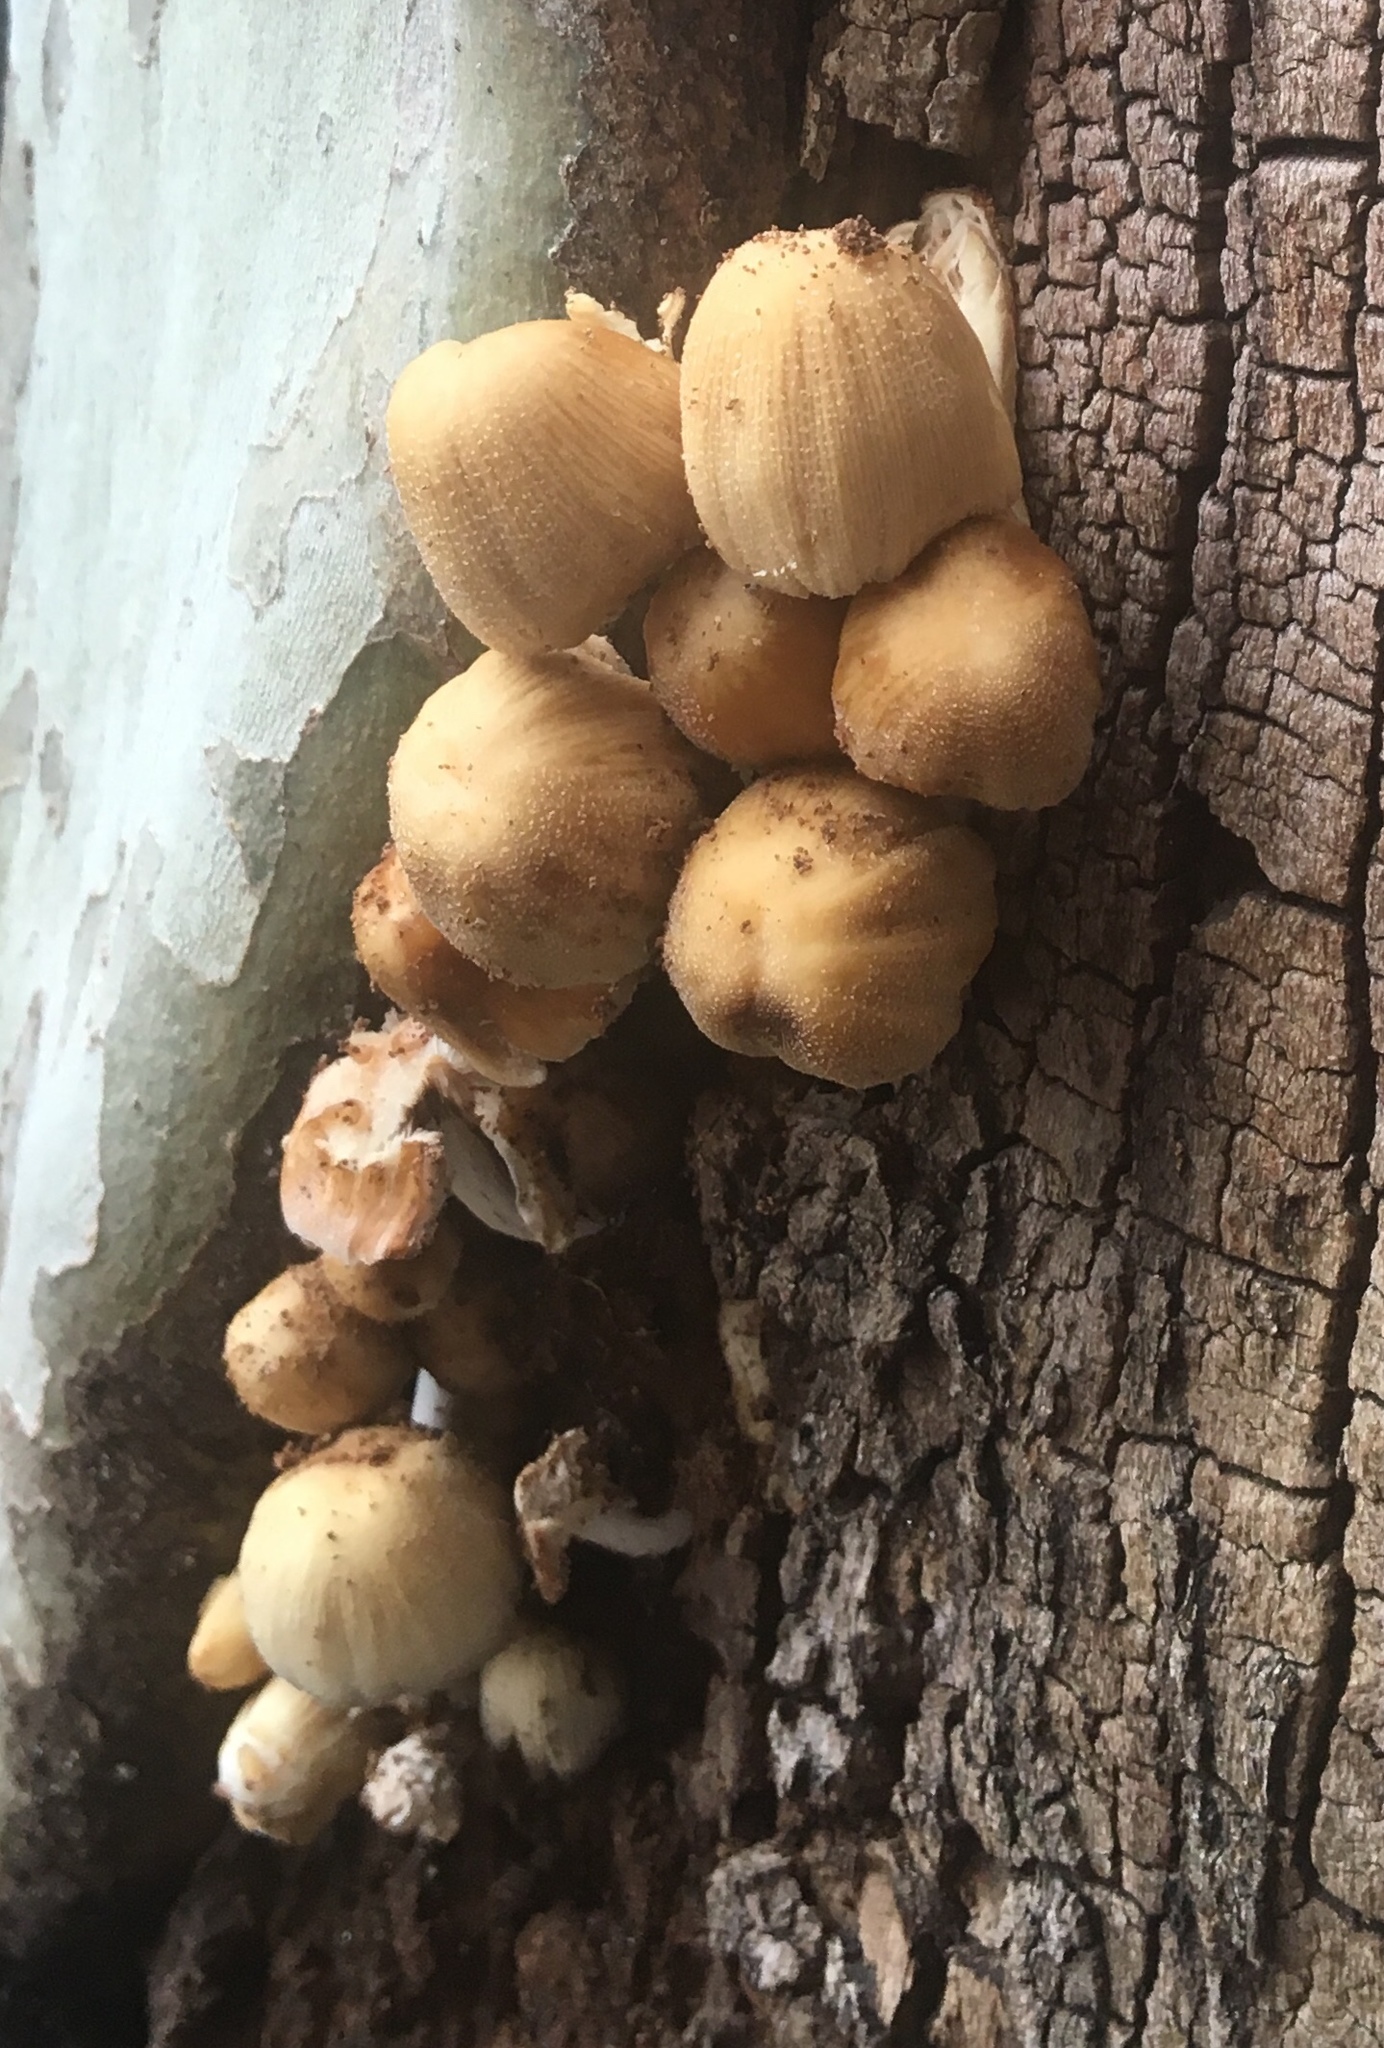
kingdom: Fungi
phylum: Basidiomycota
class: Agaricomycetes
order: Agaricales
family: Psathyrellaceae
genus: Coprinellus
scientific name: Coprinellus micaceus
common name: Glistening ink-cap
